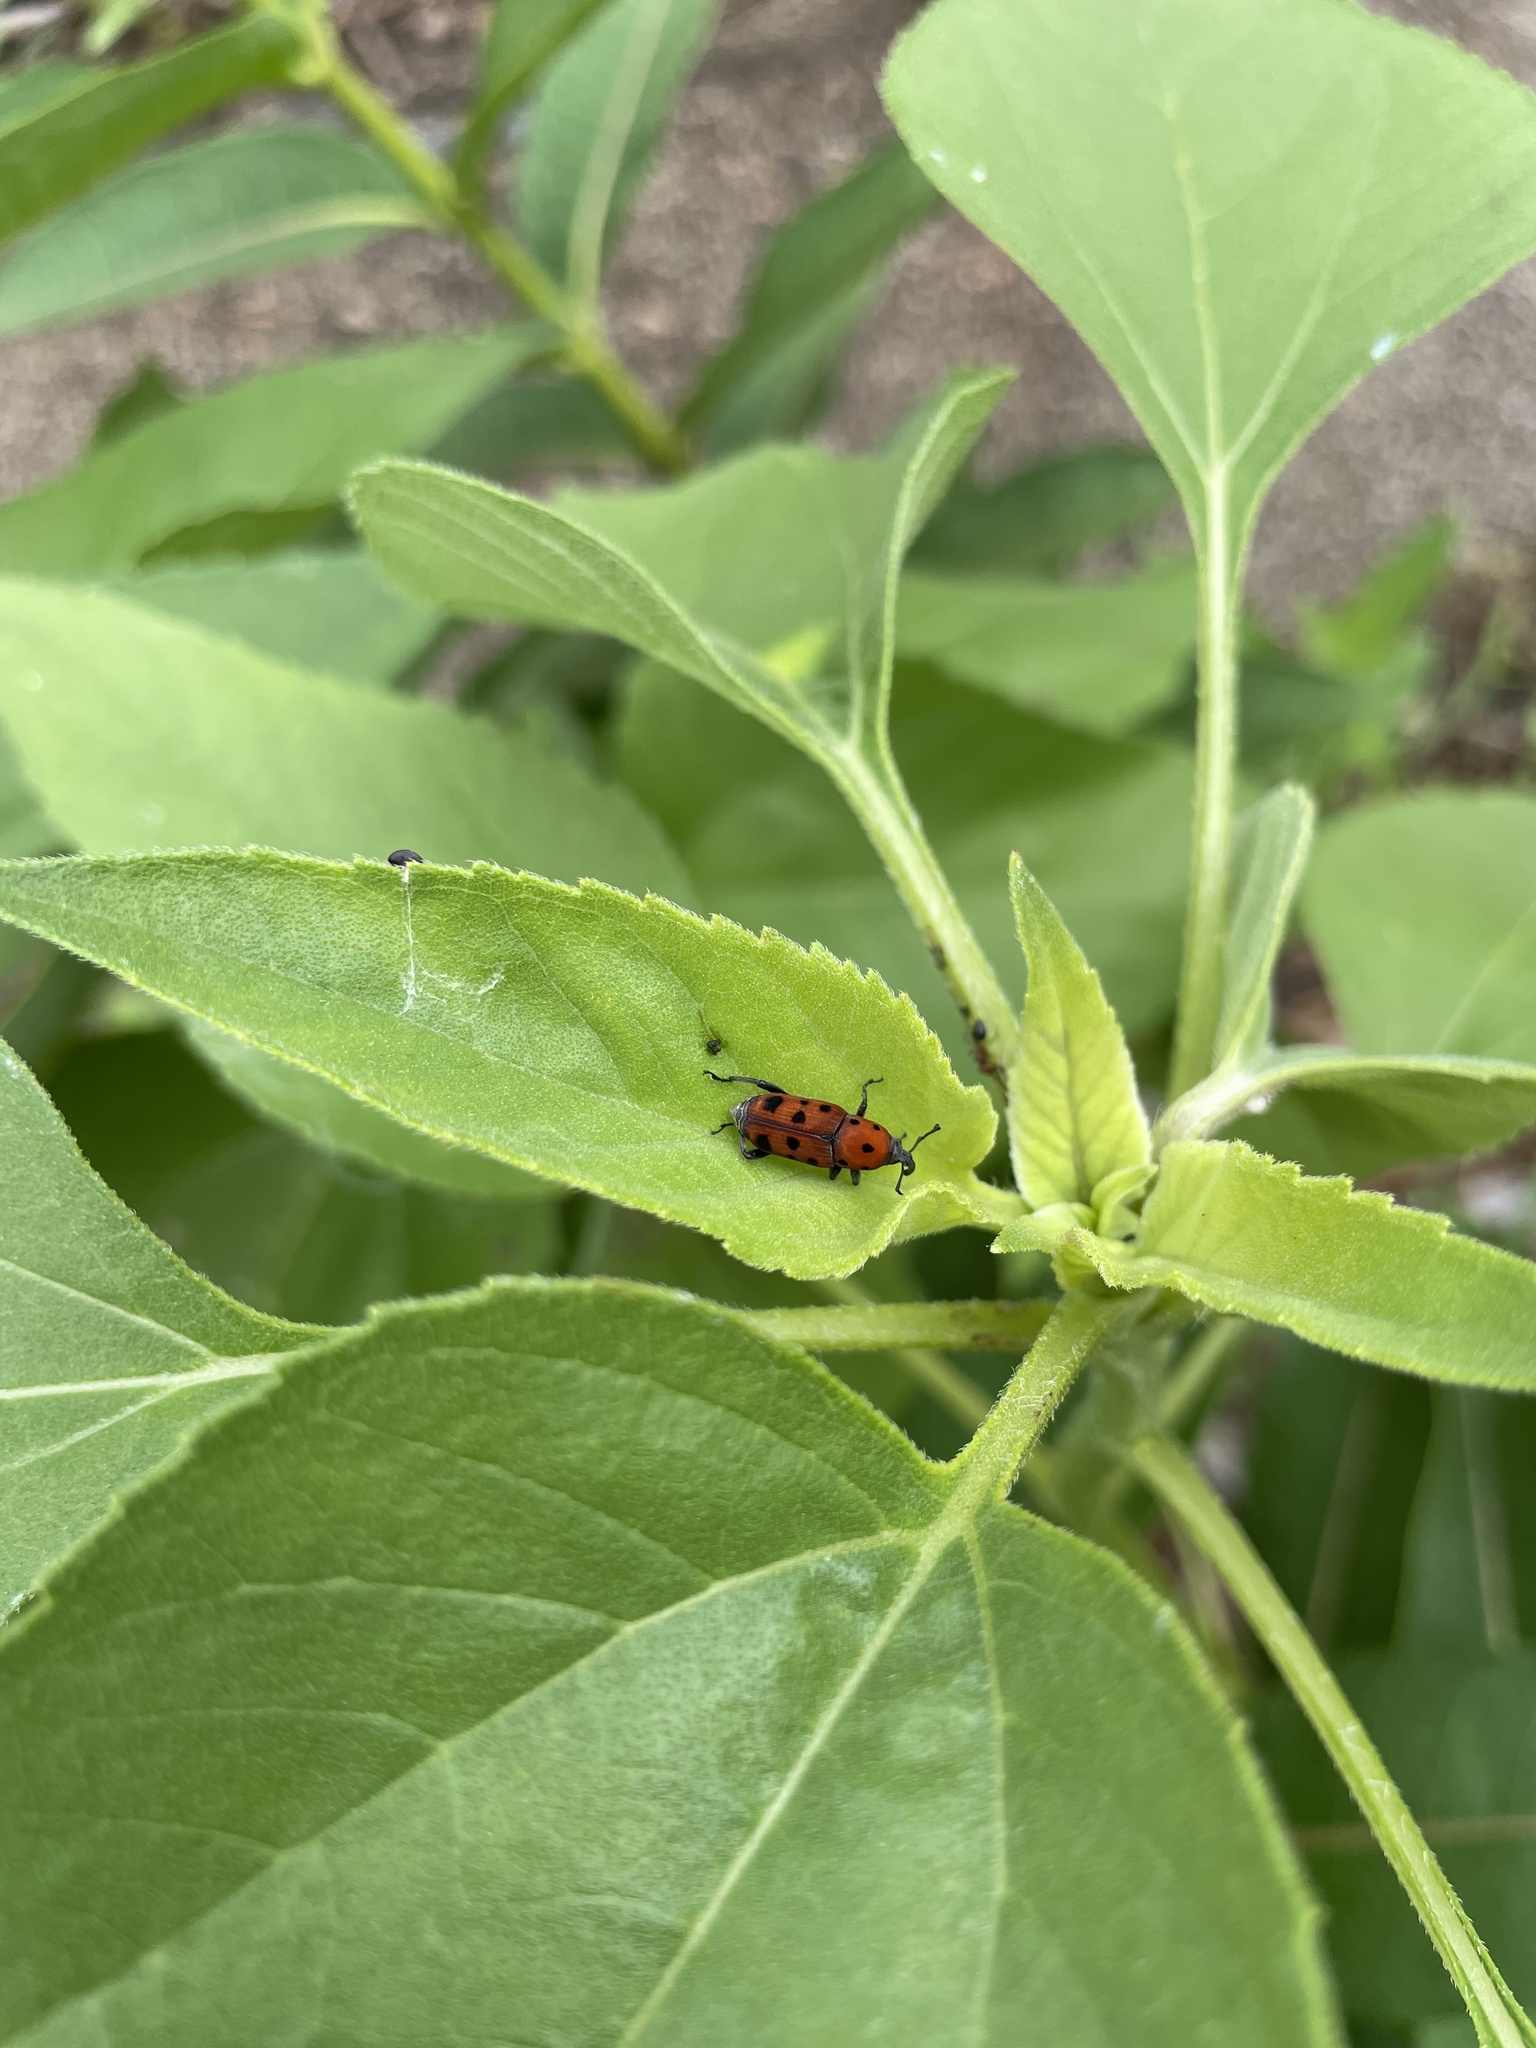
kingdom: Animalia
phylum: Arthropoda
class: Insecta
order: Coleoptera
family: Dryophthoridae
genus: Rhodobaenus
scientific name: Rhodobaenus tredecimpunctatus
